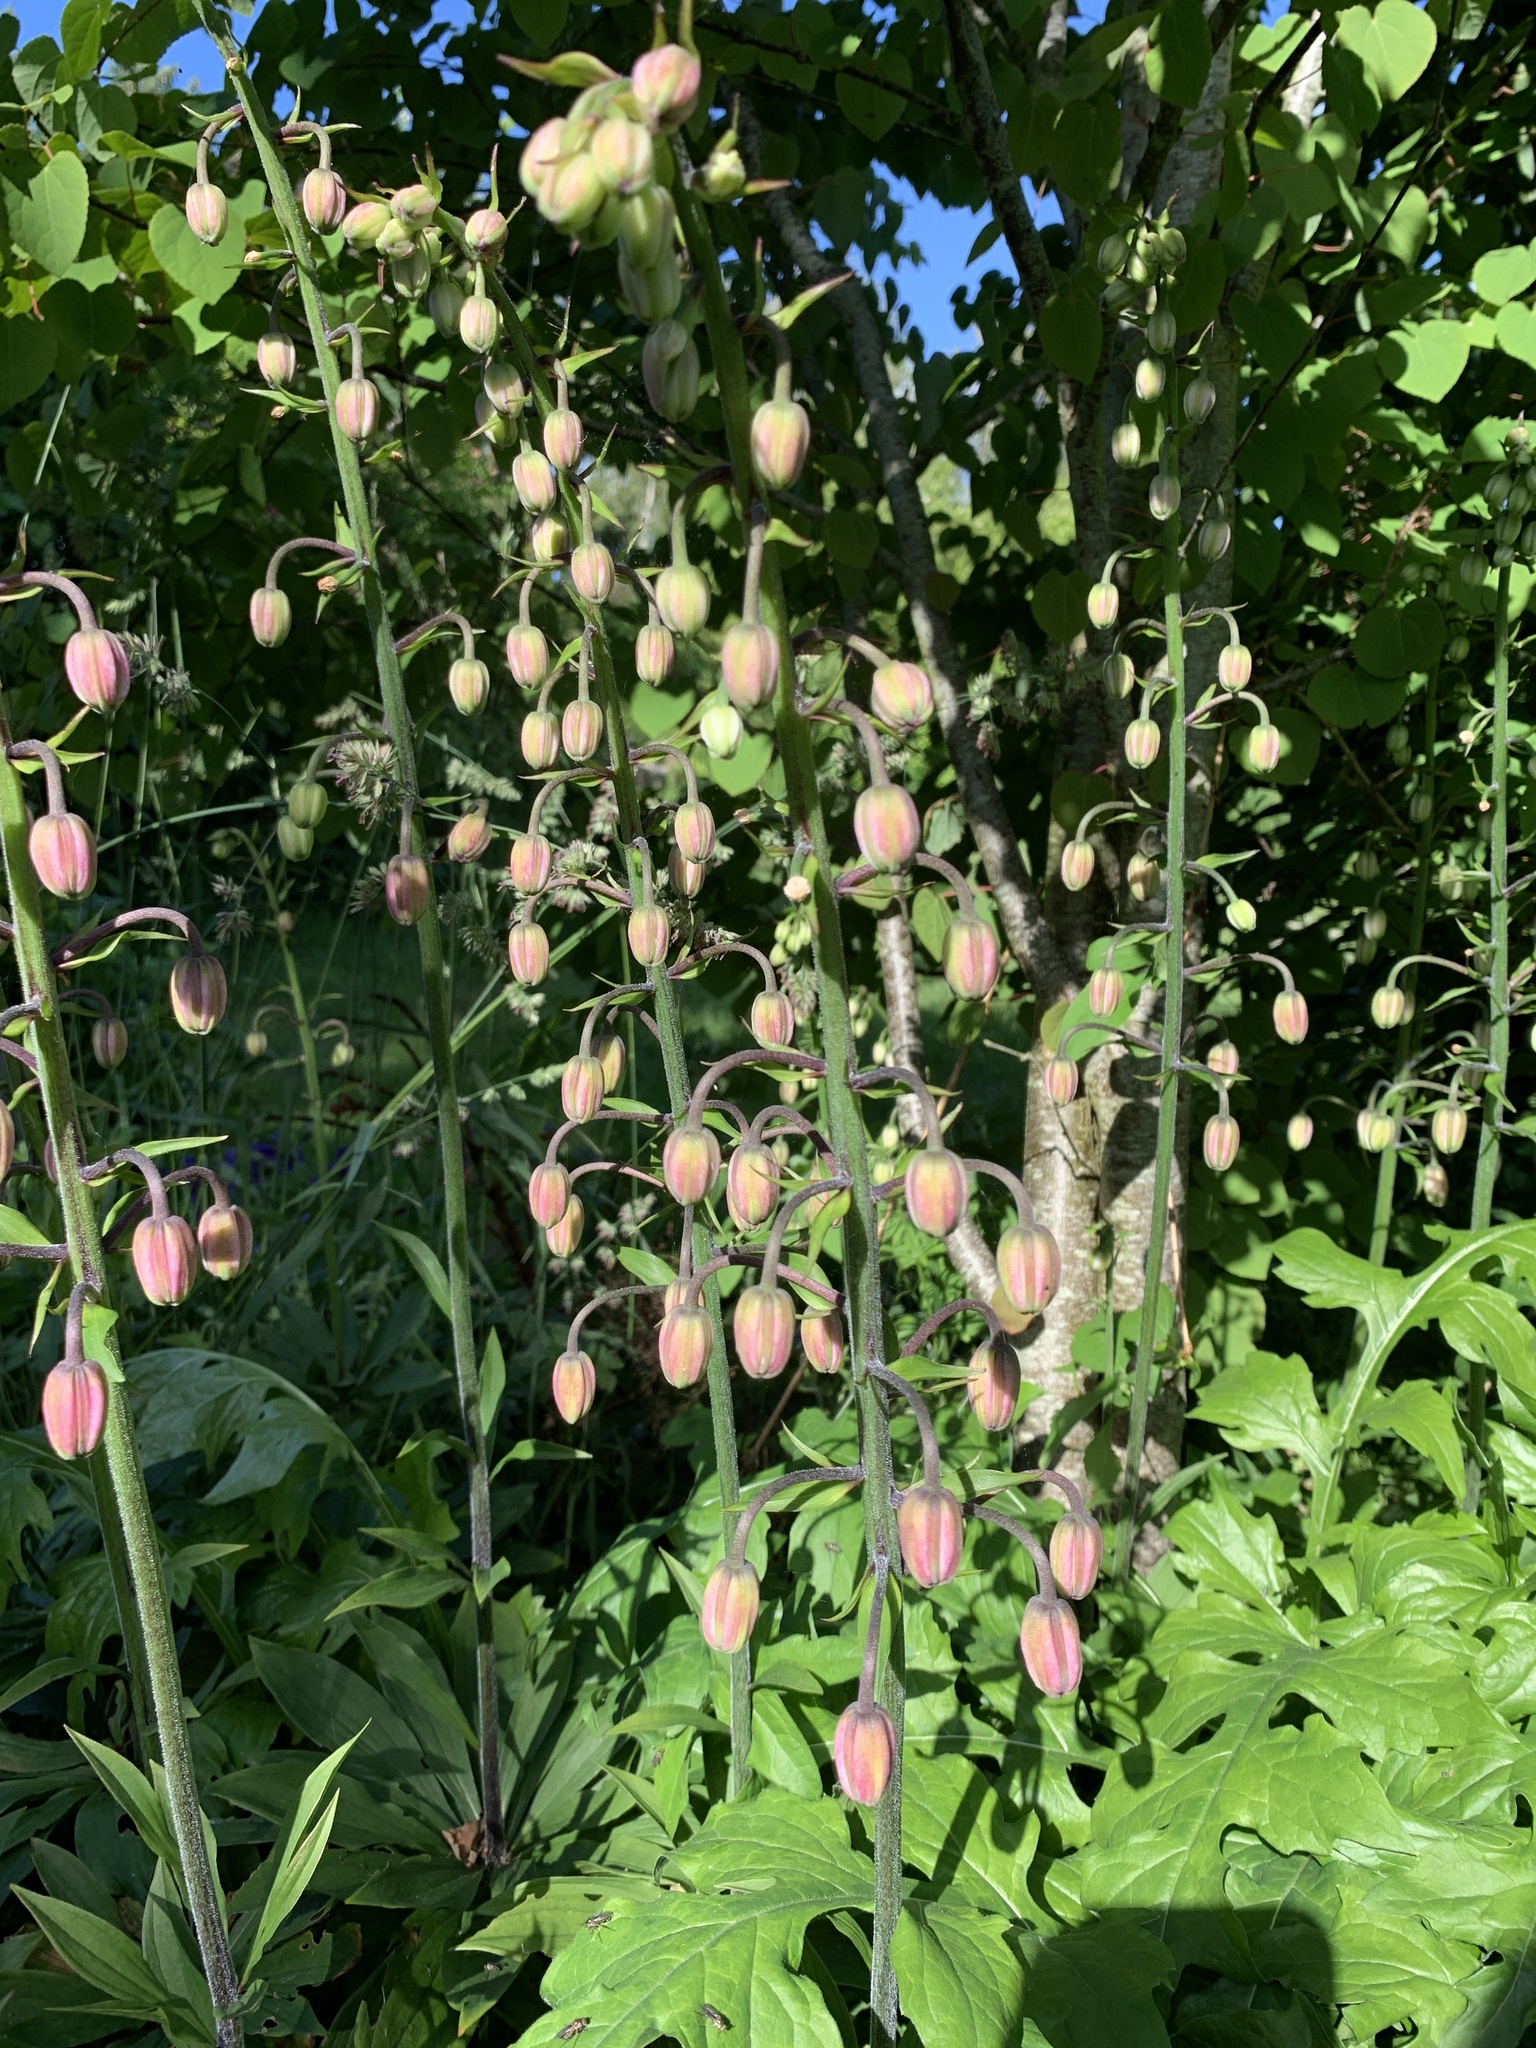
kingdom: Plantae
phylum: Tracheophyta
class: Liliopsida
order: Liliales
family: Liliaceae
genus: Lilium
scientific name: Lilium martagon
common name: Martagon lily
